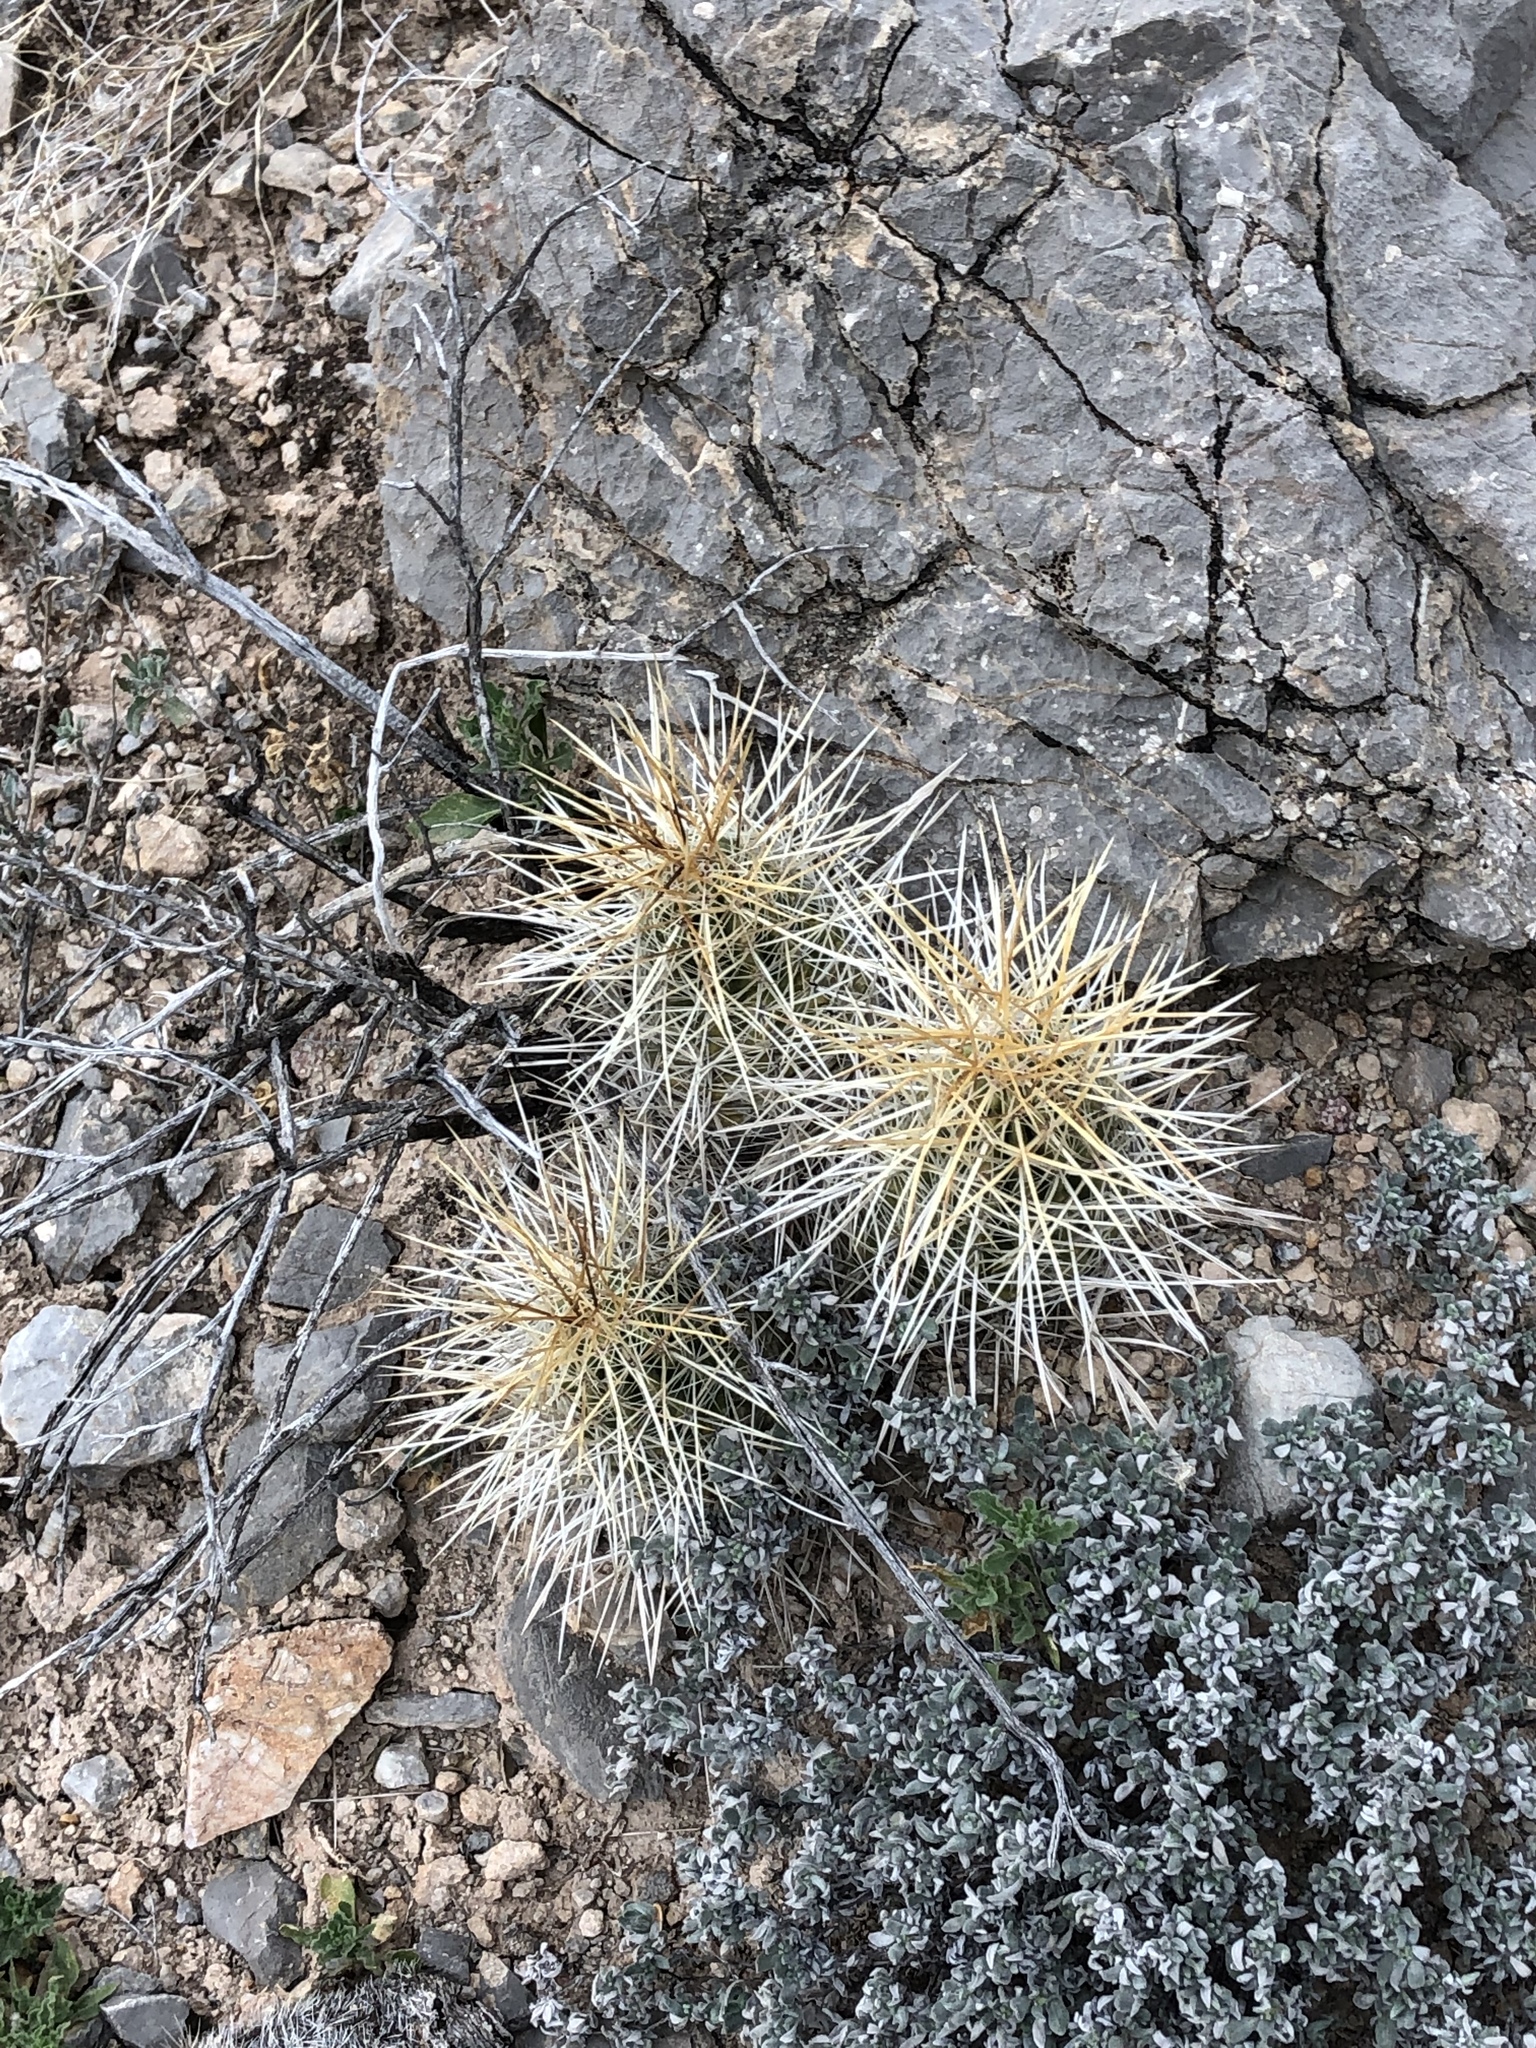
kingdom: Plantae
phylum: Tracheophyta
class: Magnoliopsida
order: Caryophyllales
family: Cactaceae
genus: Echinocereus
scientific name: Echinocereus stramineus
